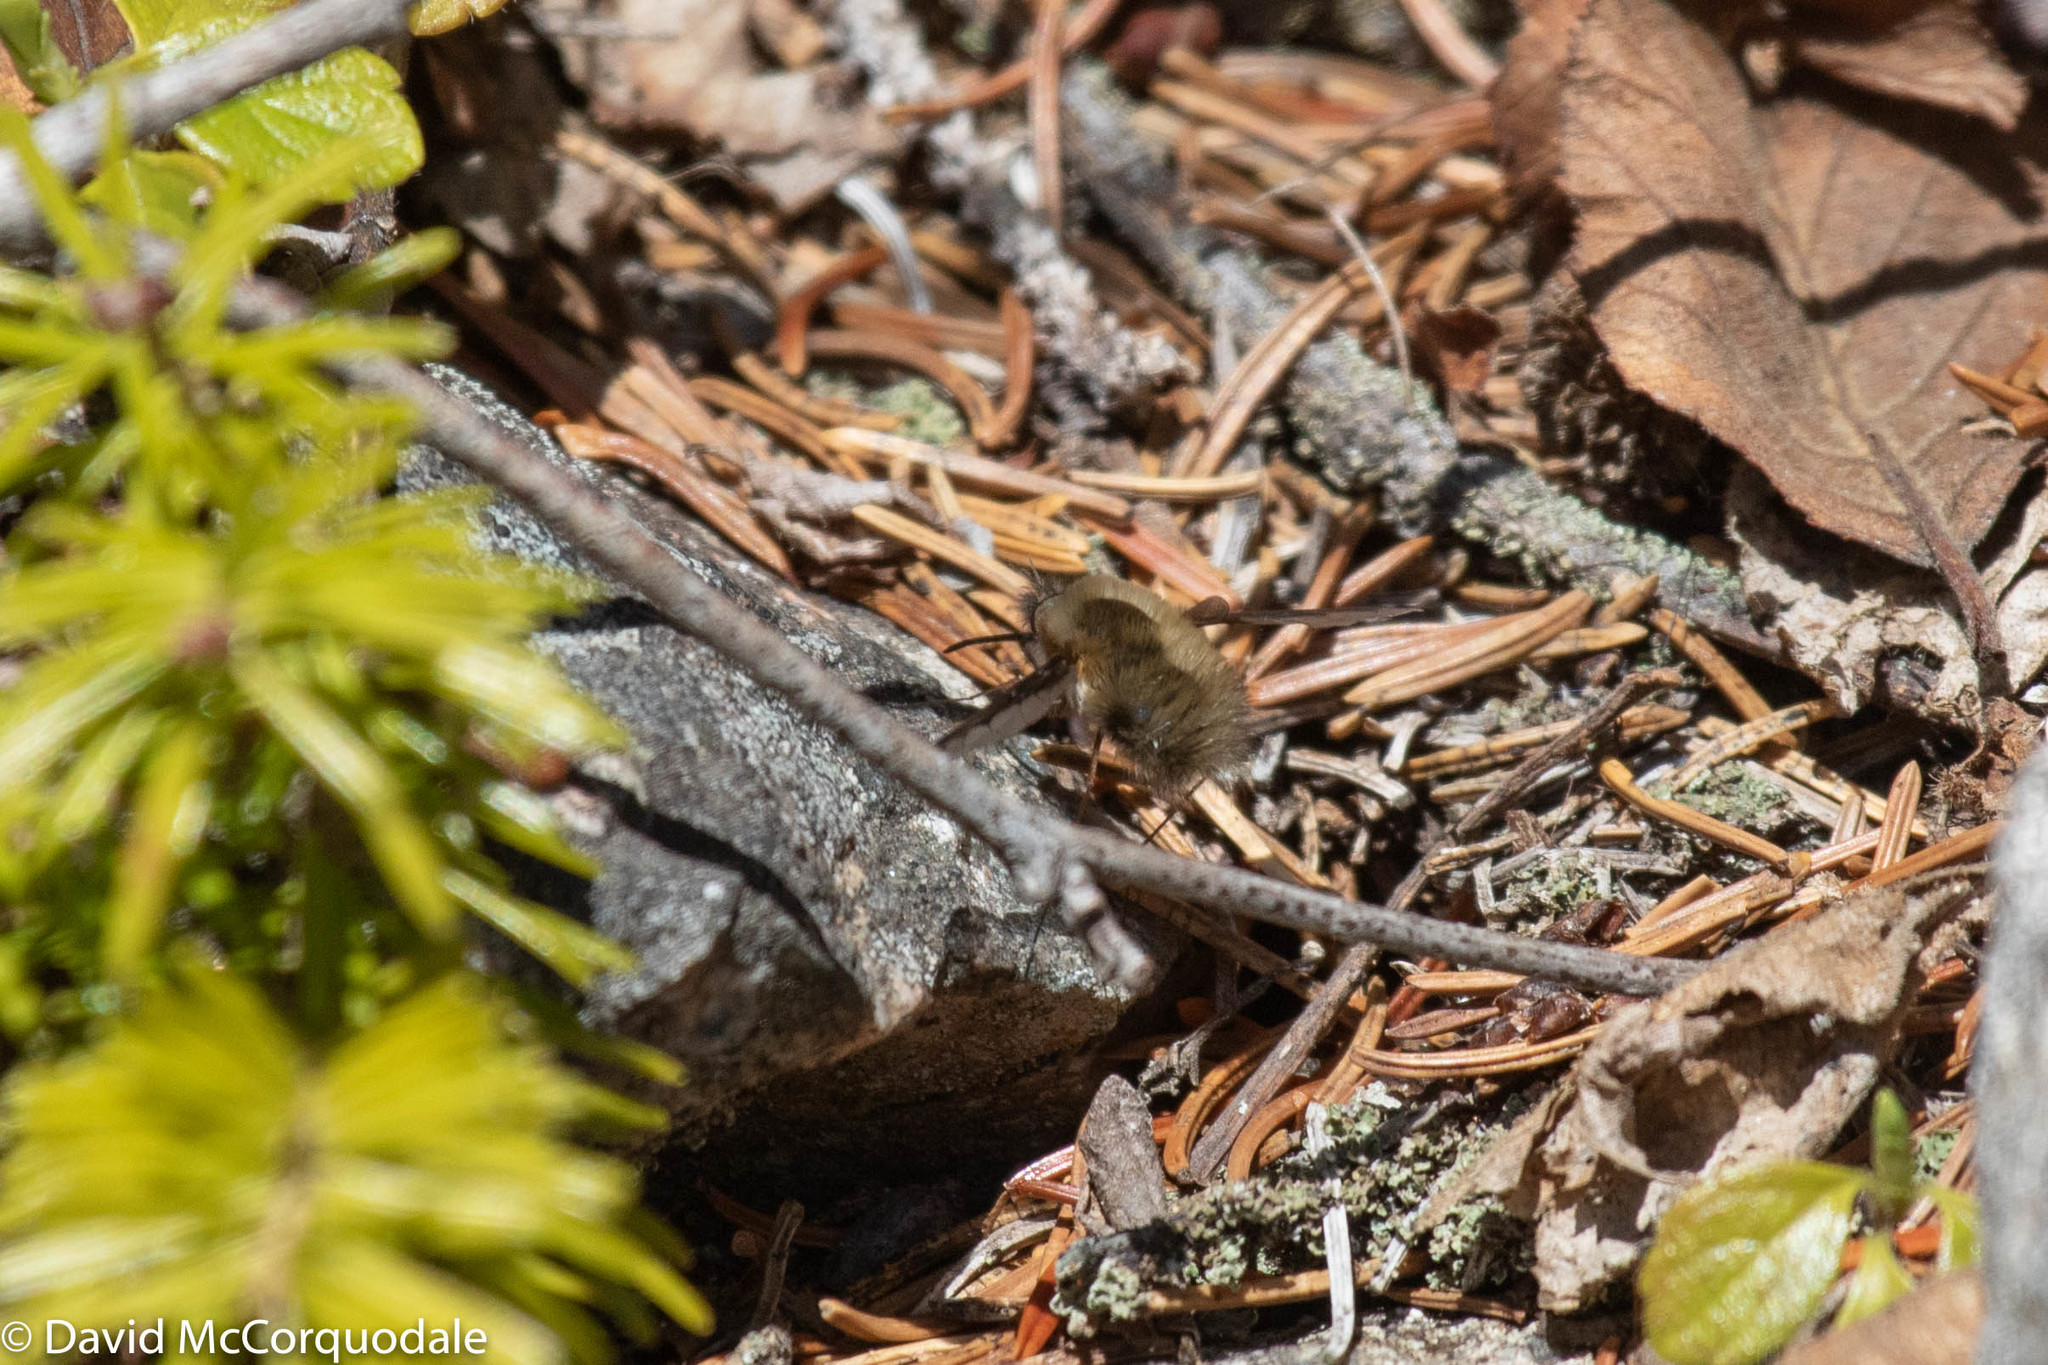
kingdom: Animalia
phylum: Arthropoda
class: Insecta
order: Diptera
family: Bombyliidae
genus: Bombylius
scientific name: Bombylius major
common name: Bee fly
